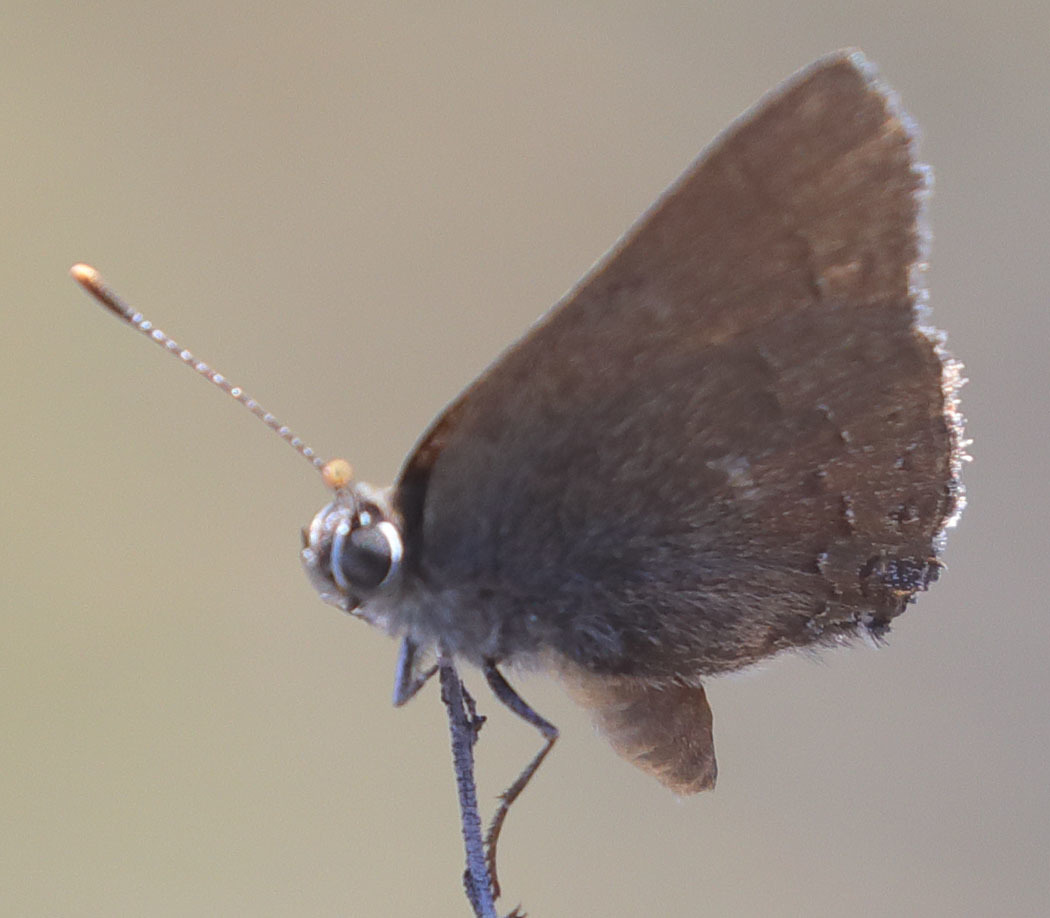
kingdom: Animalia
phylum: Arthropoda
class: Insecta
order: Lepidoptera
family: Lycaenidae
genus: Strymon
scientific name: Strymon saepium
